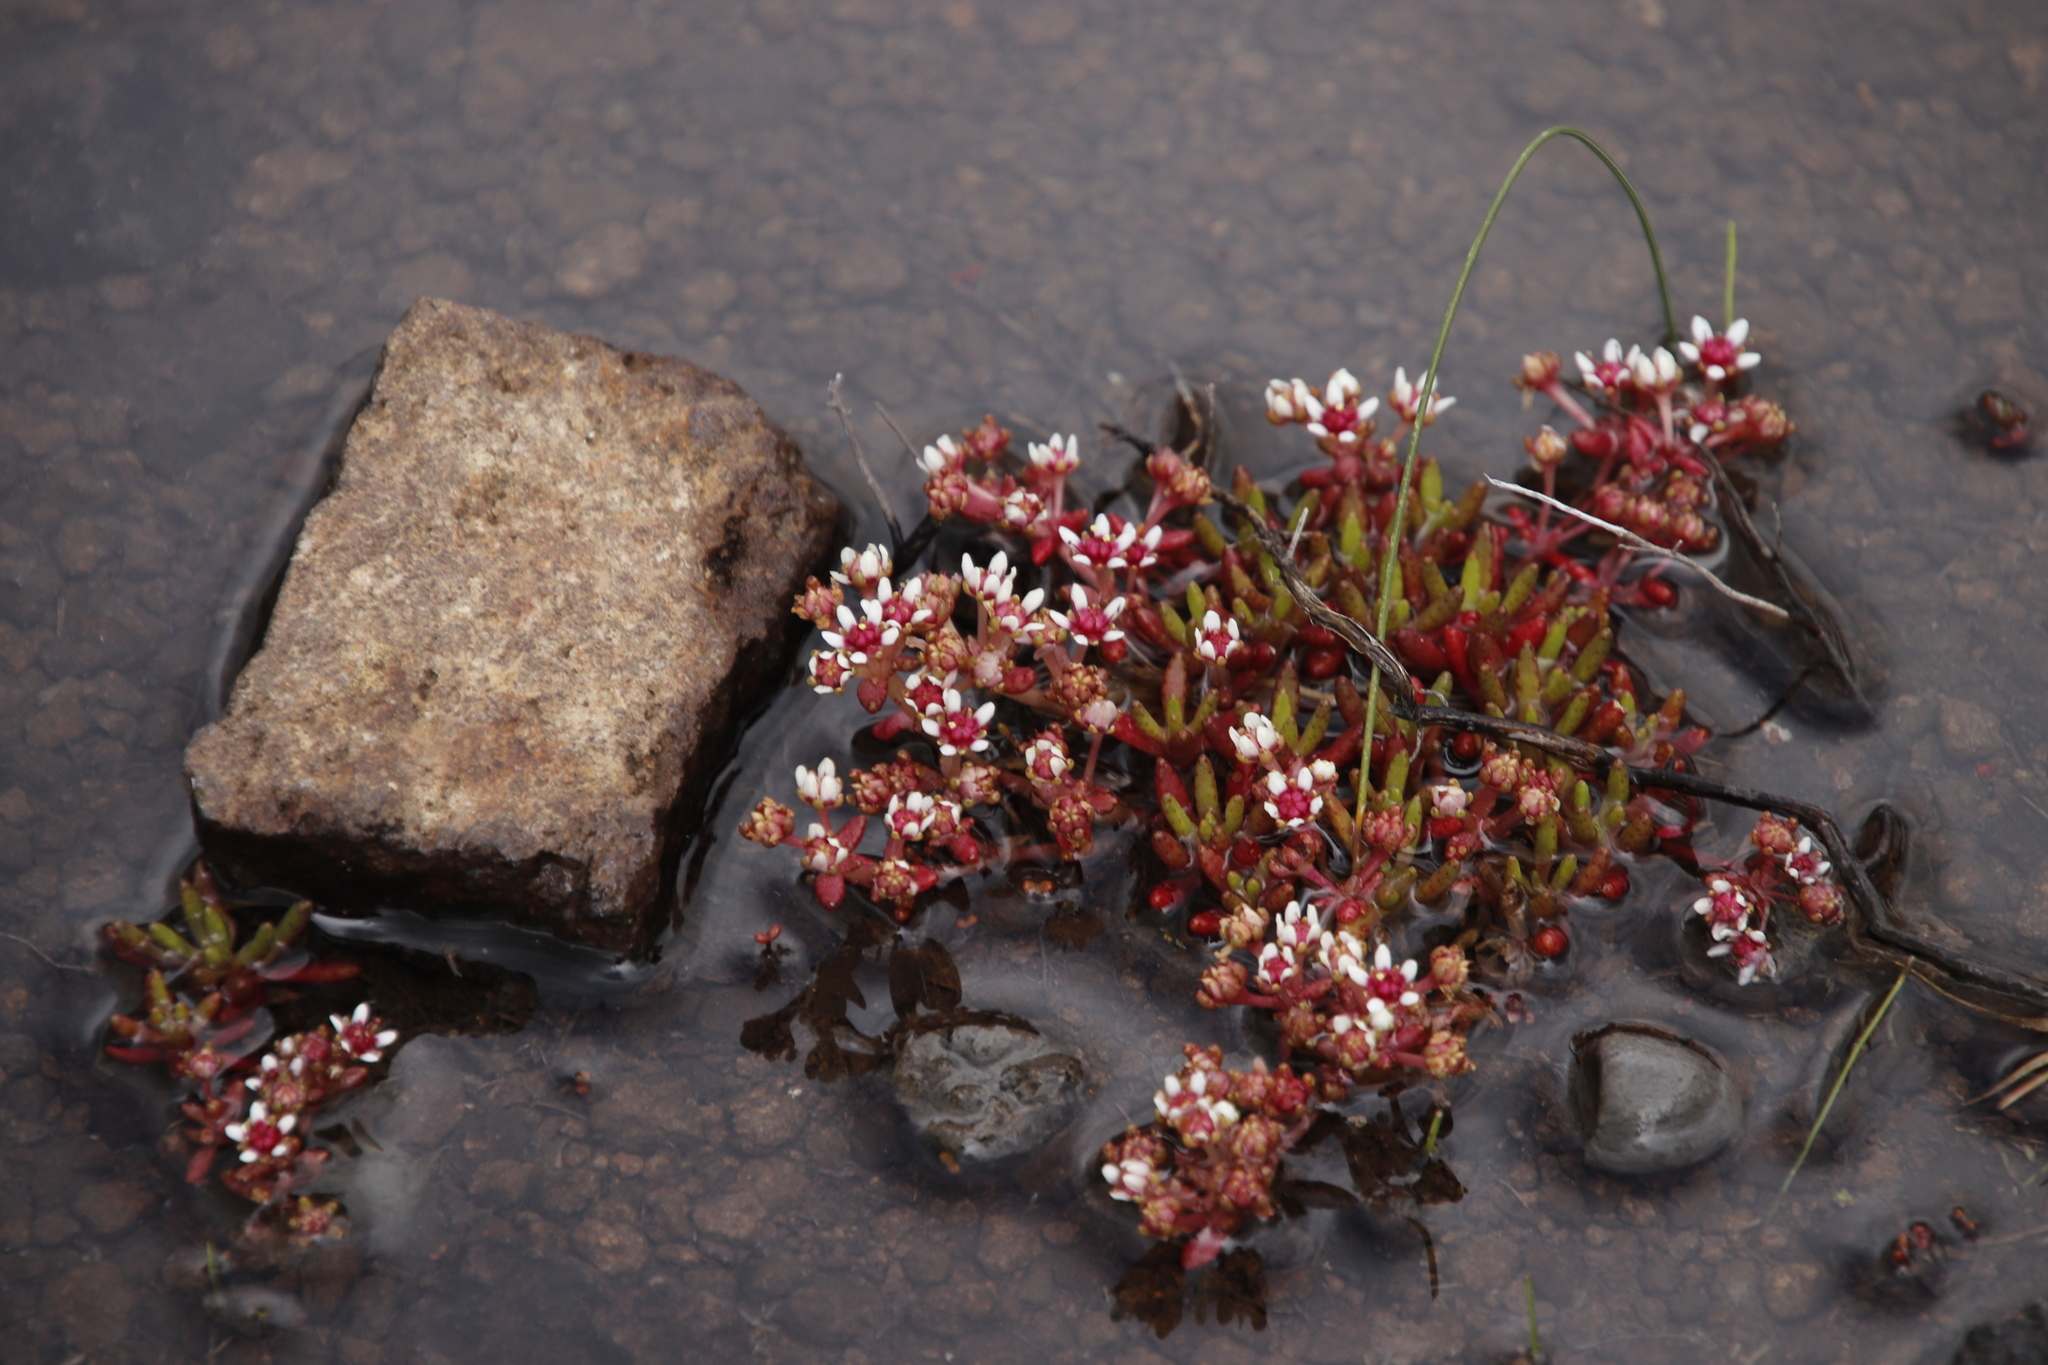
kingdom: Plantae
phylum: Tracheophyta
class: Magnoliopsida
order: Saxifragales
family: Crassulaceae
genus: Crassula
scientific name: Crassula peploides
